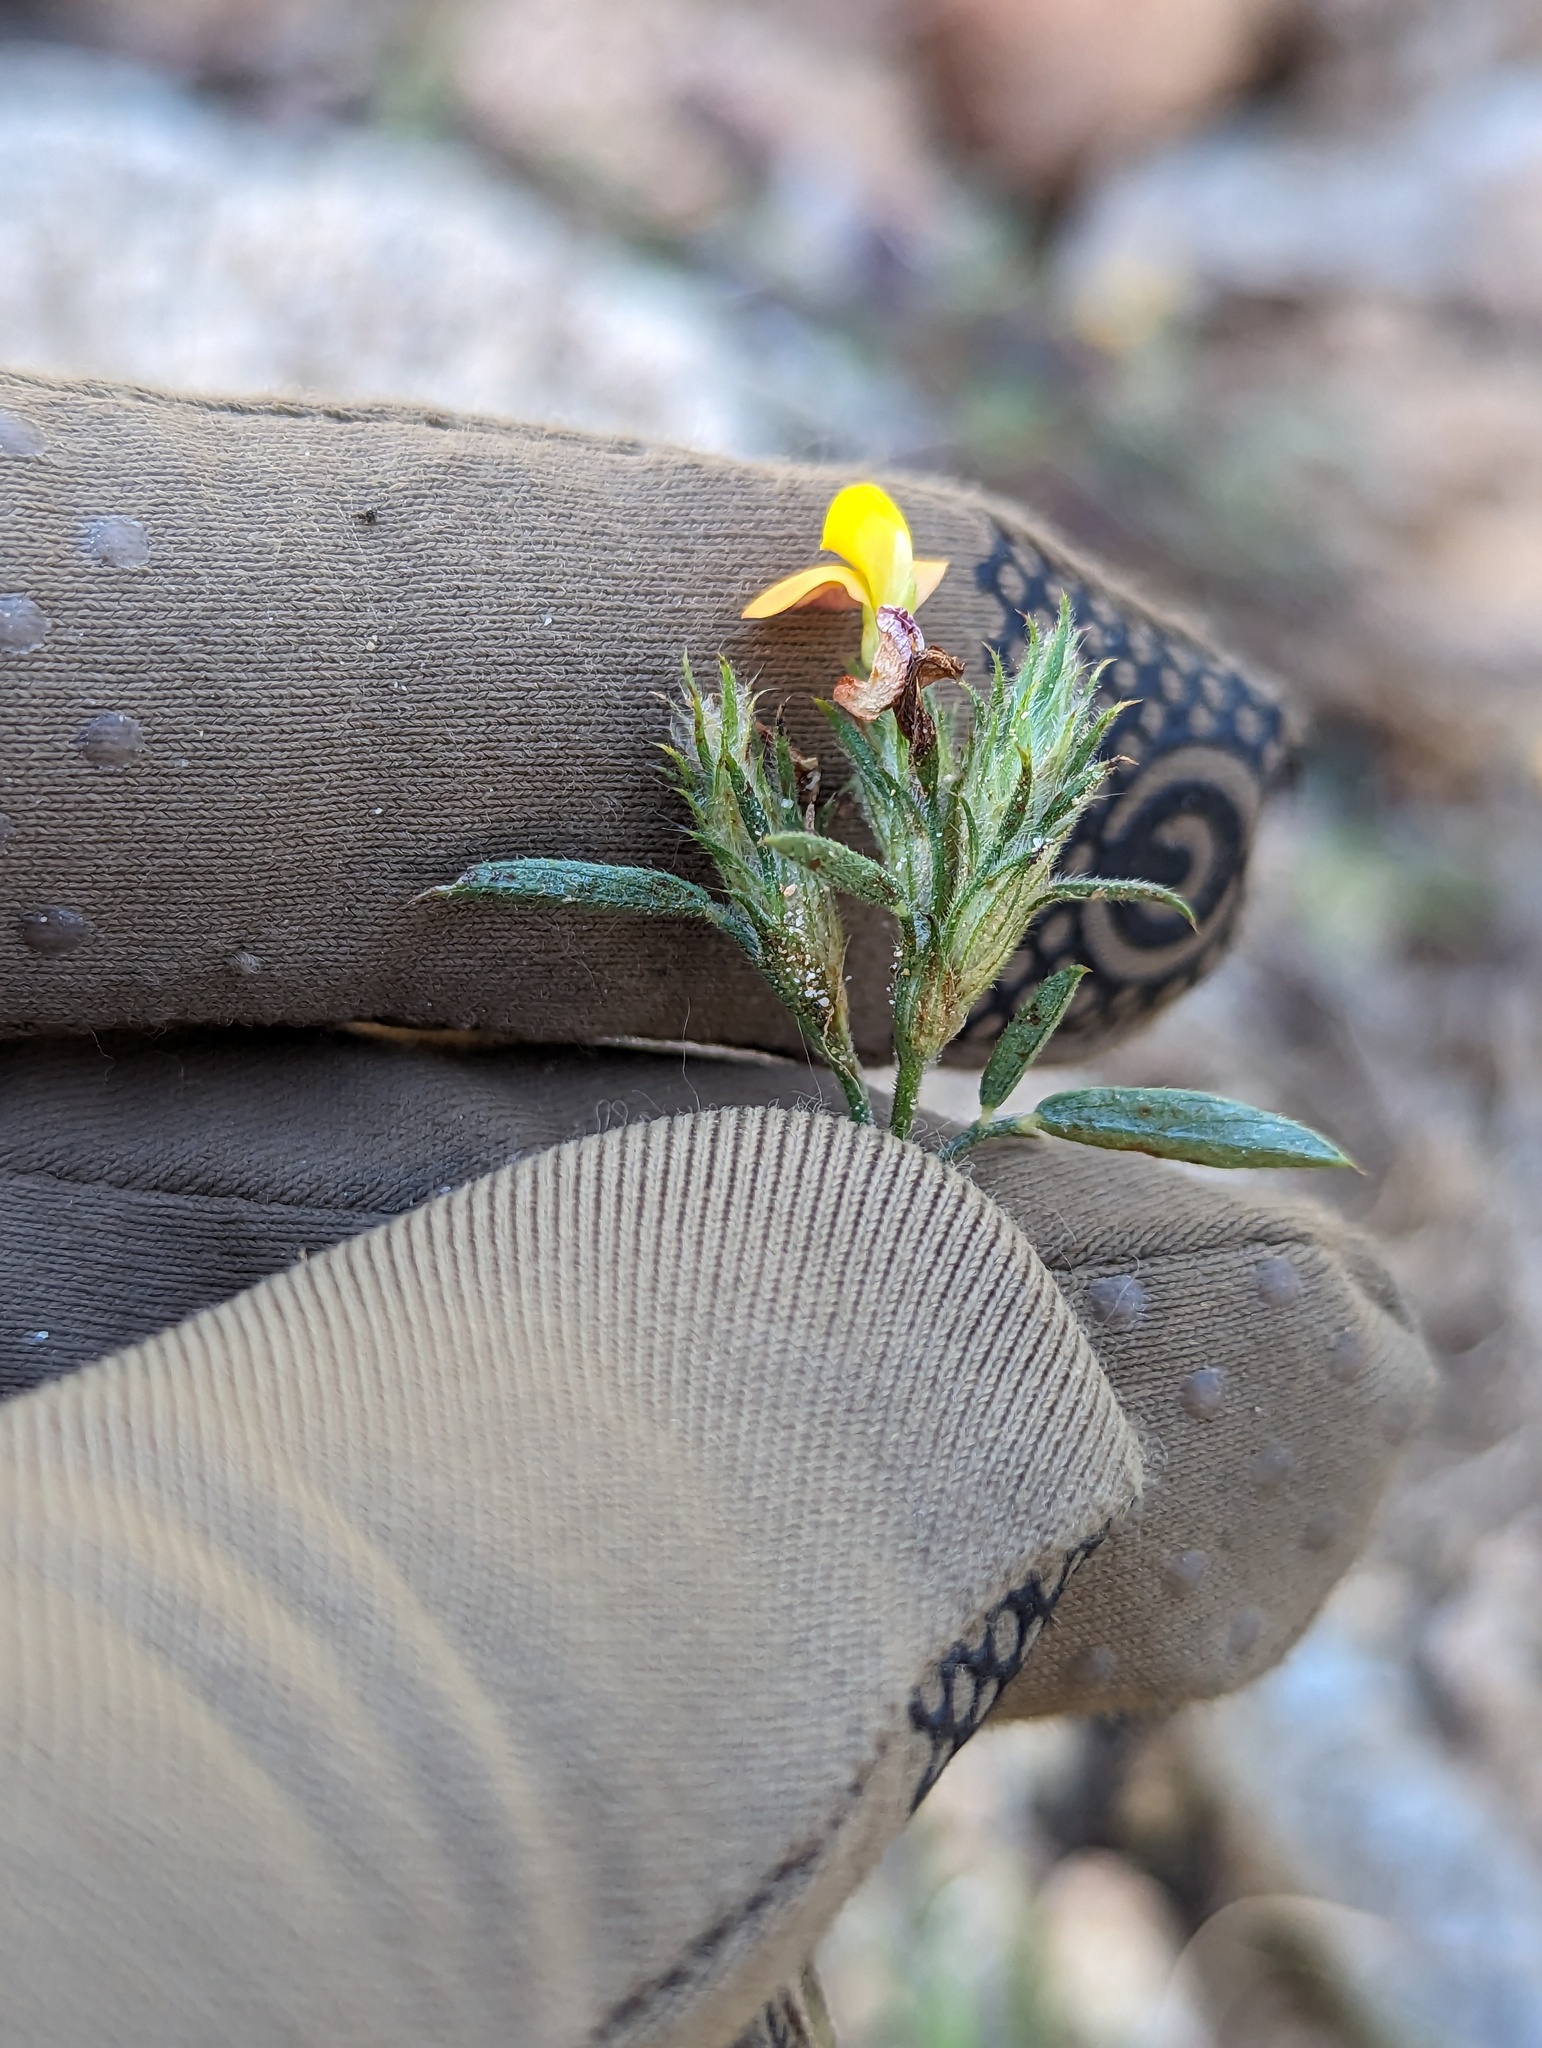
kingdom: Plantae
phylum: Tracheophyta
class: Magnoliopsida
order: Fabales
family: Fabaceae
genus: Stylosanthes
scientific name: Stylosanthes viscosa
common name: Viscid pencil-flower
